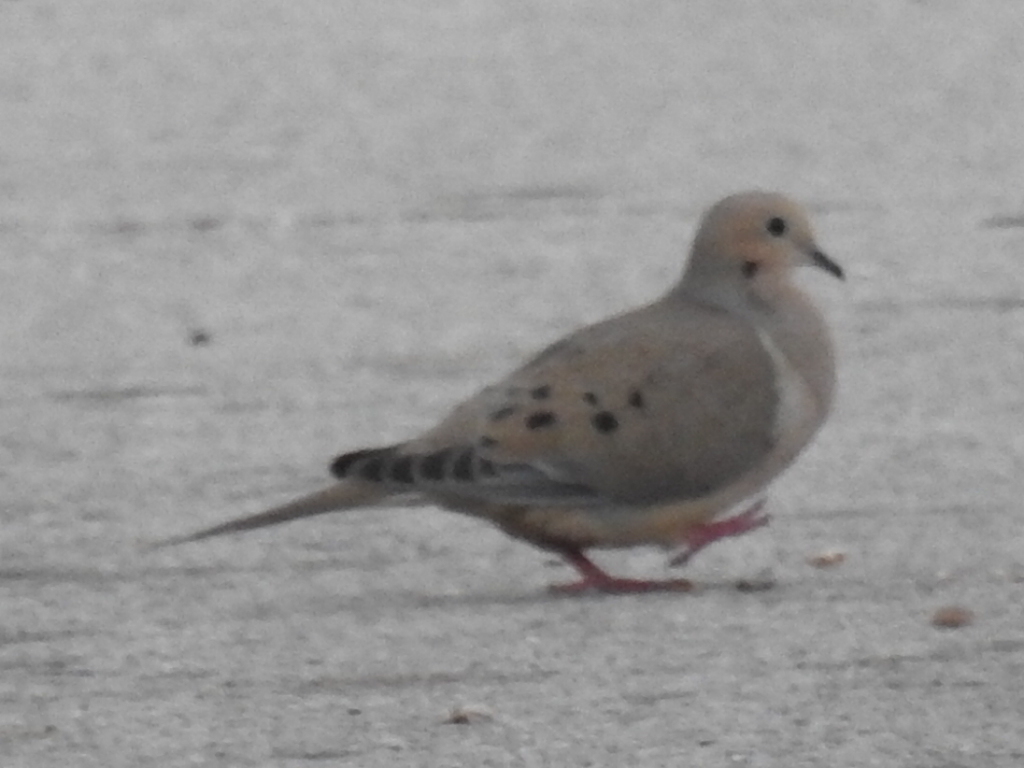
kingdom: Animalia
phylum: Chordata
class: Aves
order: Columbiformes
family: Columbidae
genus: Zenaida
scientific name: Zenaida macroura
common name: Mourning dove
